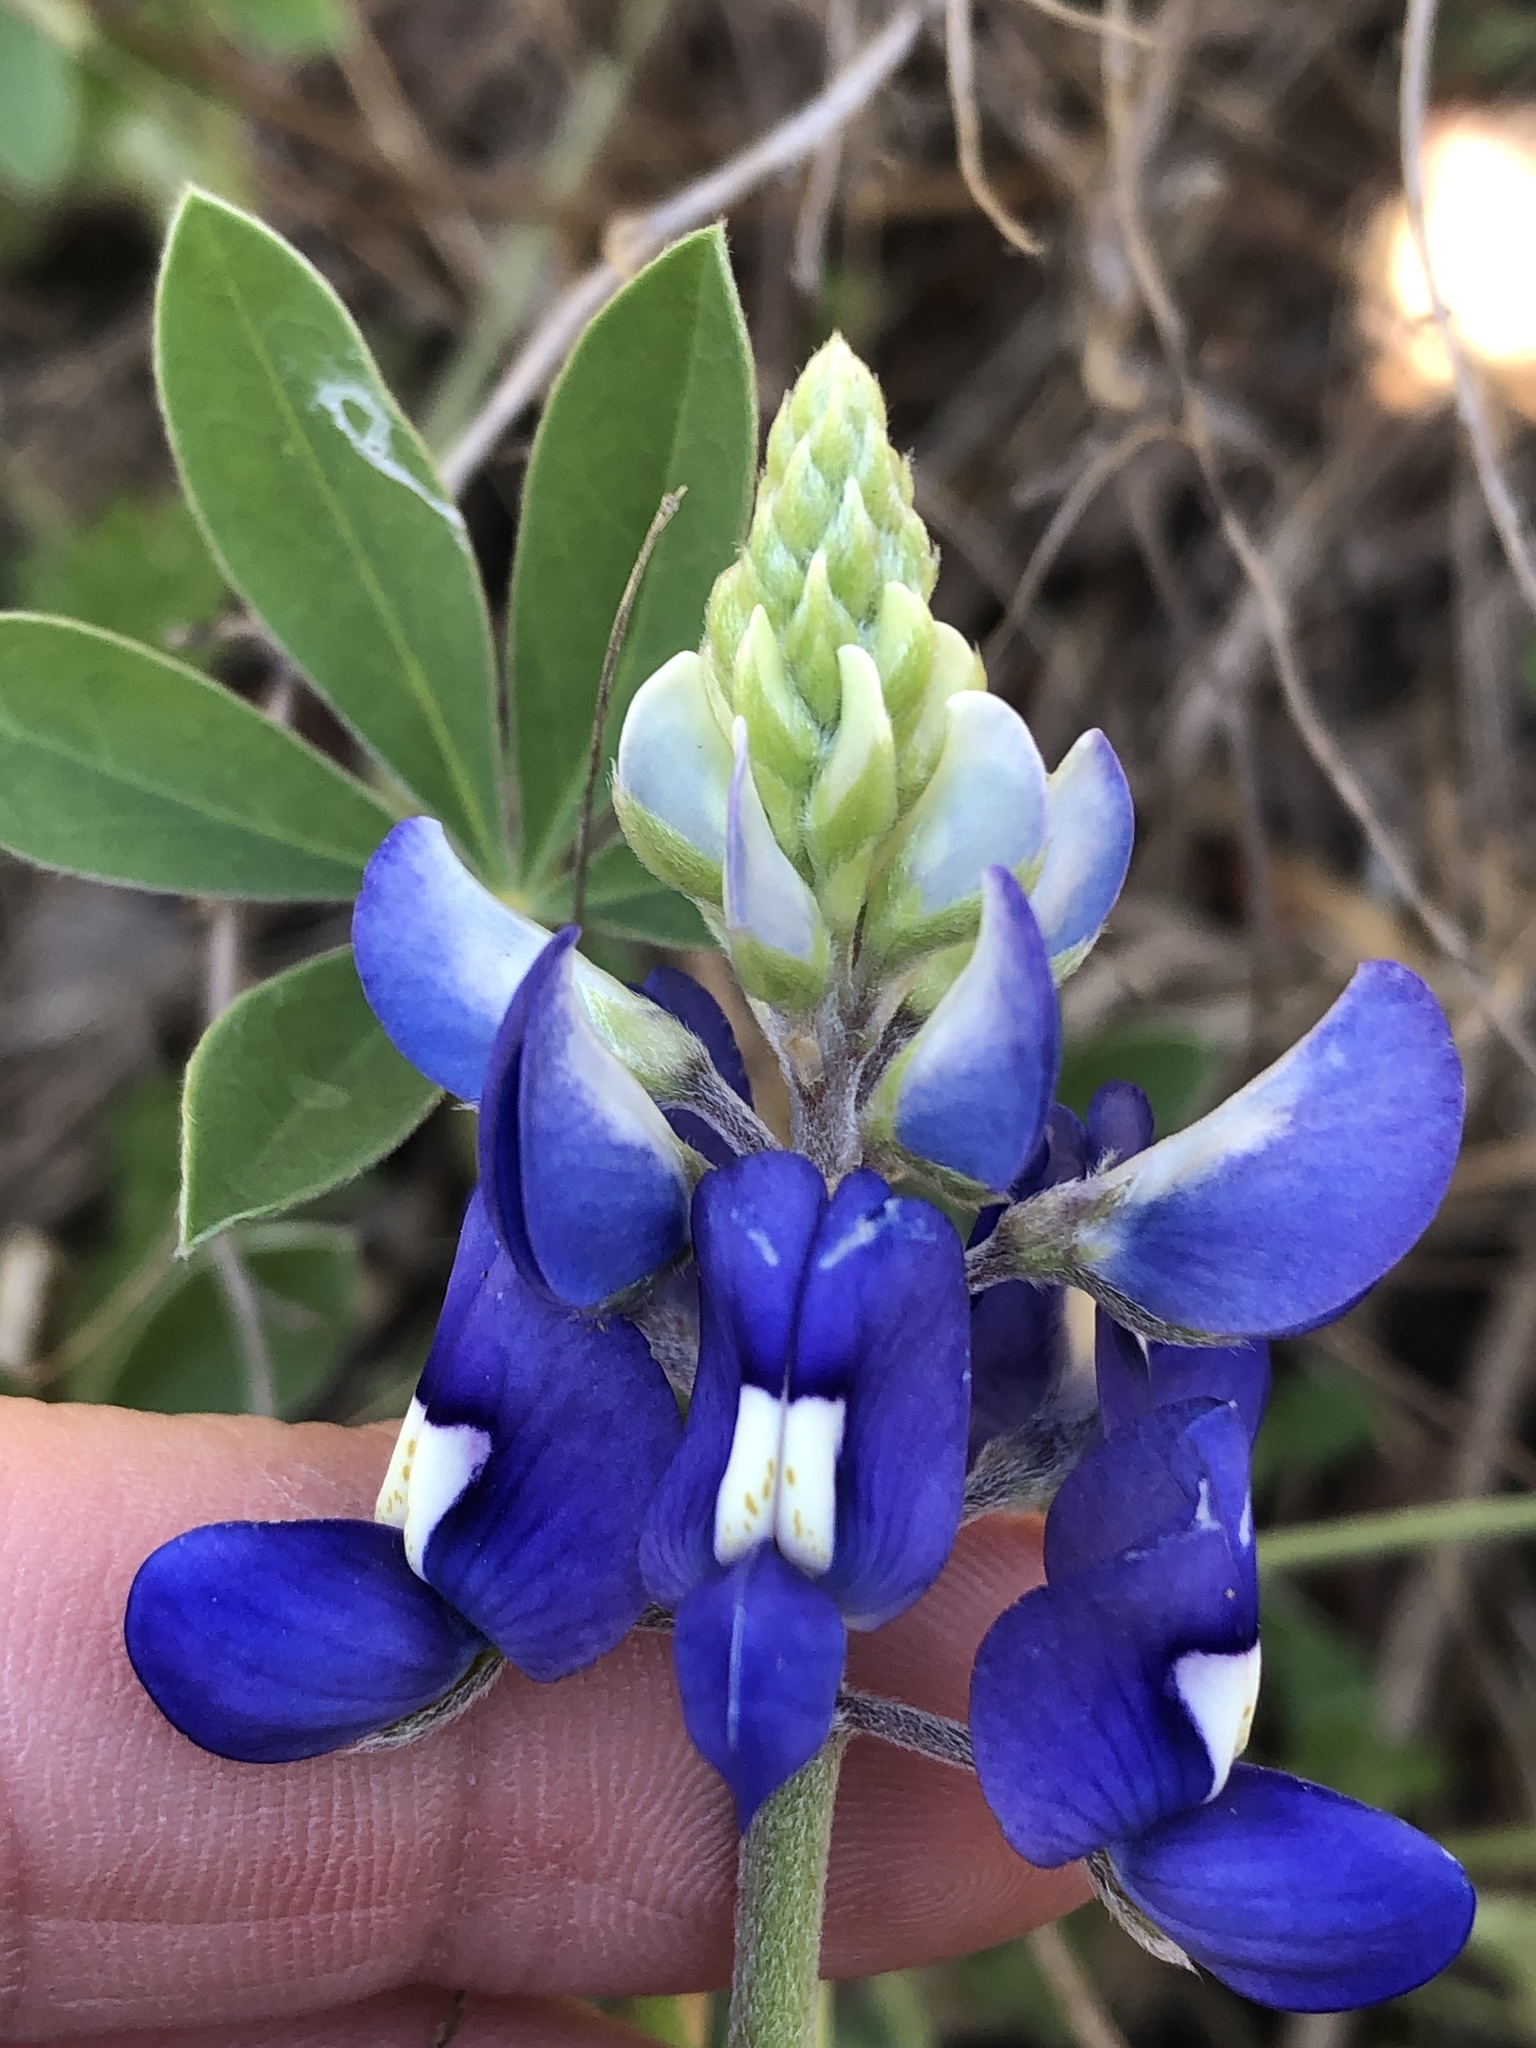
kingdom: Plantae
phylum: Tracheophyta
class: Magnoliopsida
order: Fabales
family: Fabaceae
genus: Lupinus
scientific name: Lupinus texensis
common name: Texas bluebonnet
